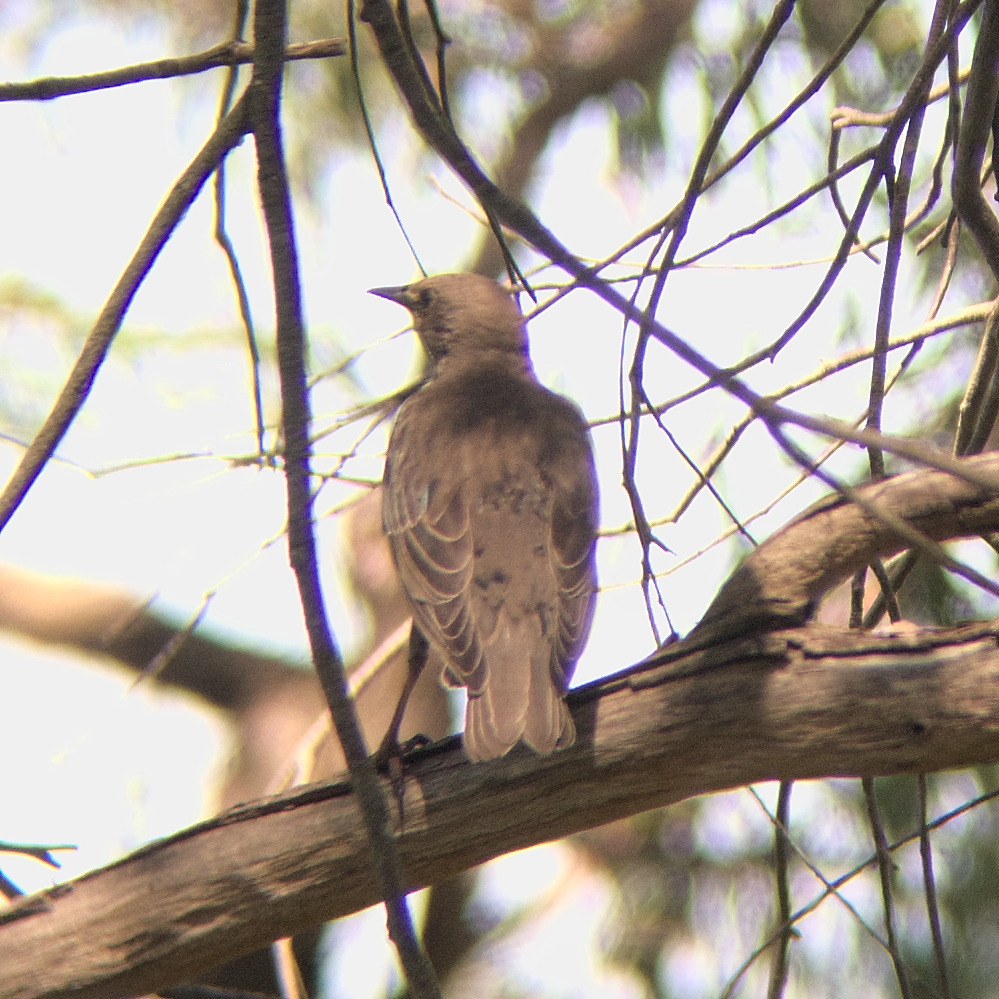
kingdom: Animalia
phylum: Chordata
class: Aves
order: Passeriformes
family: Sturnidae
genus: Sturnus
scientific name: Sturnus vulgaris
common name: Common starling
